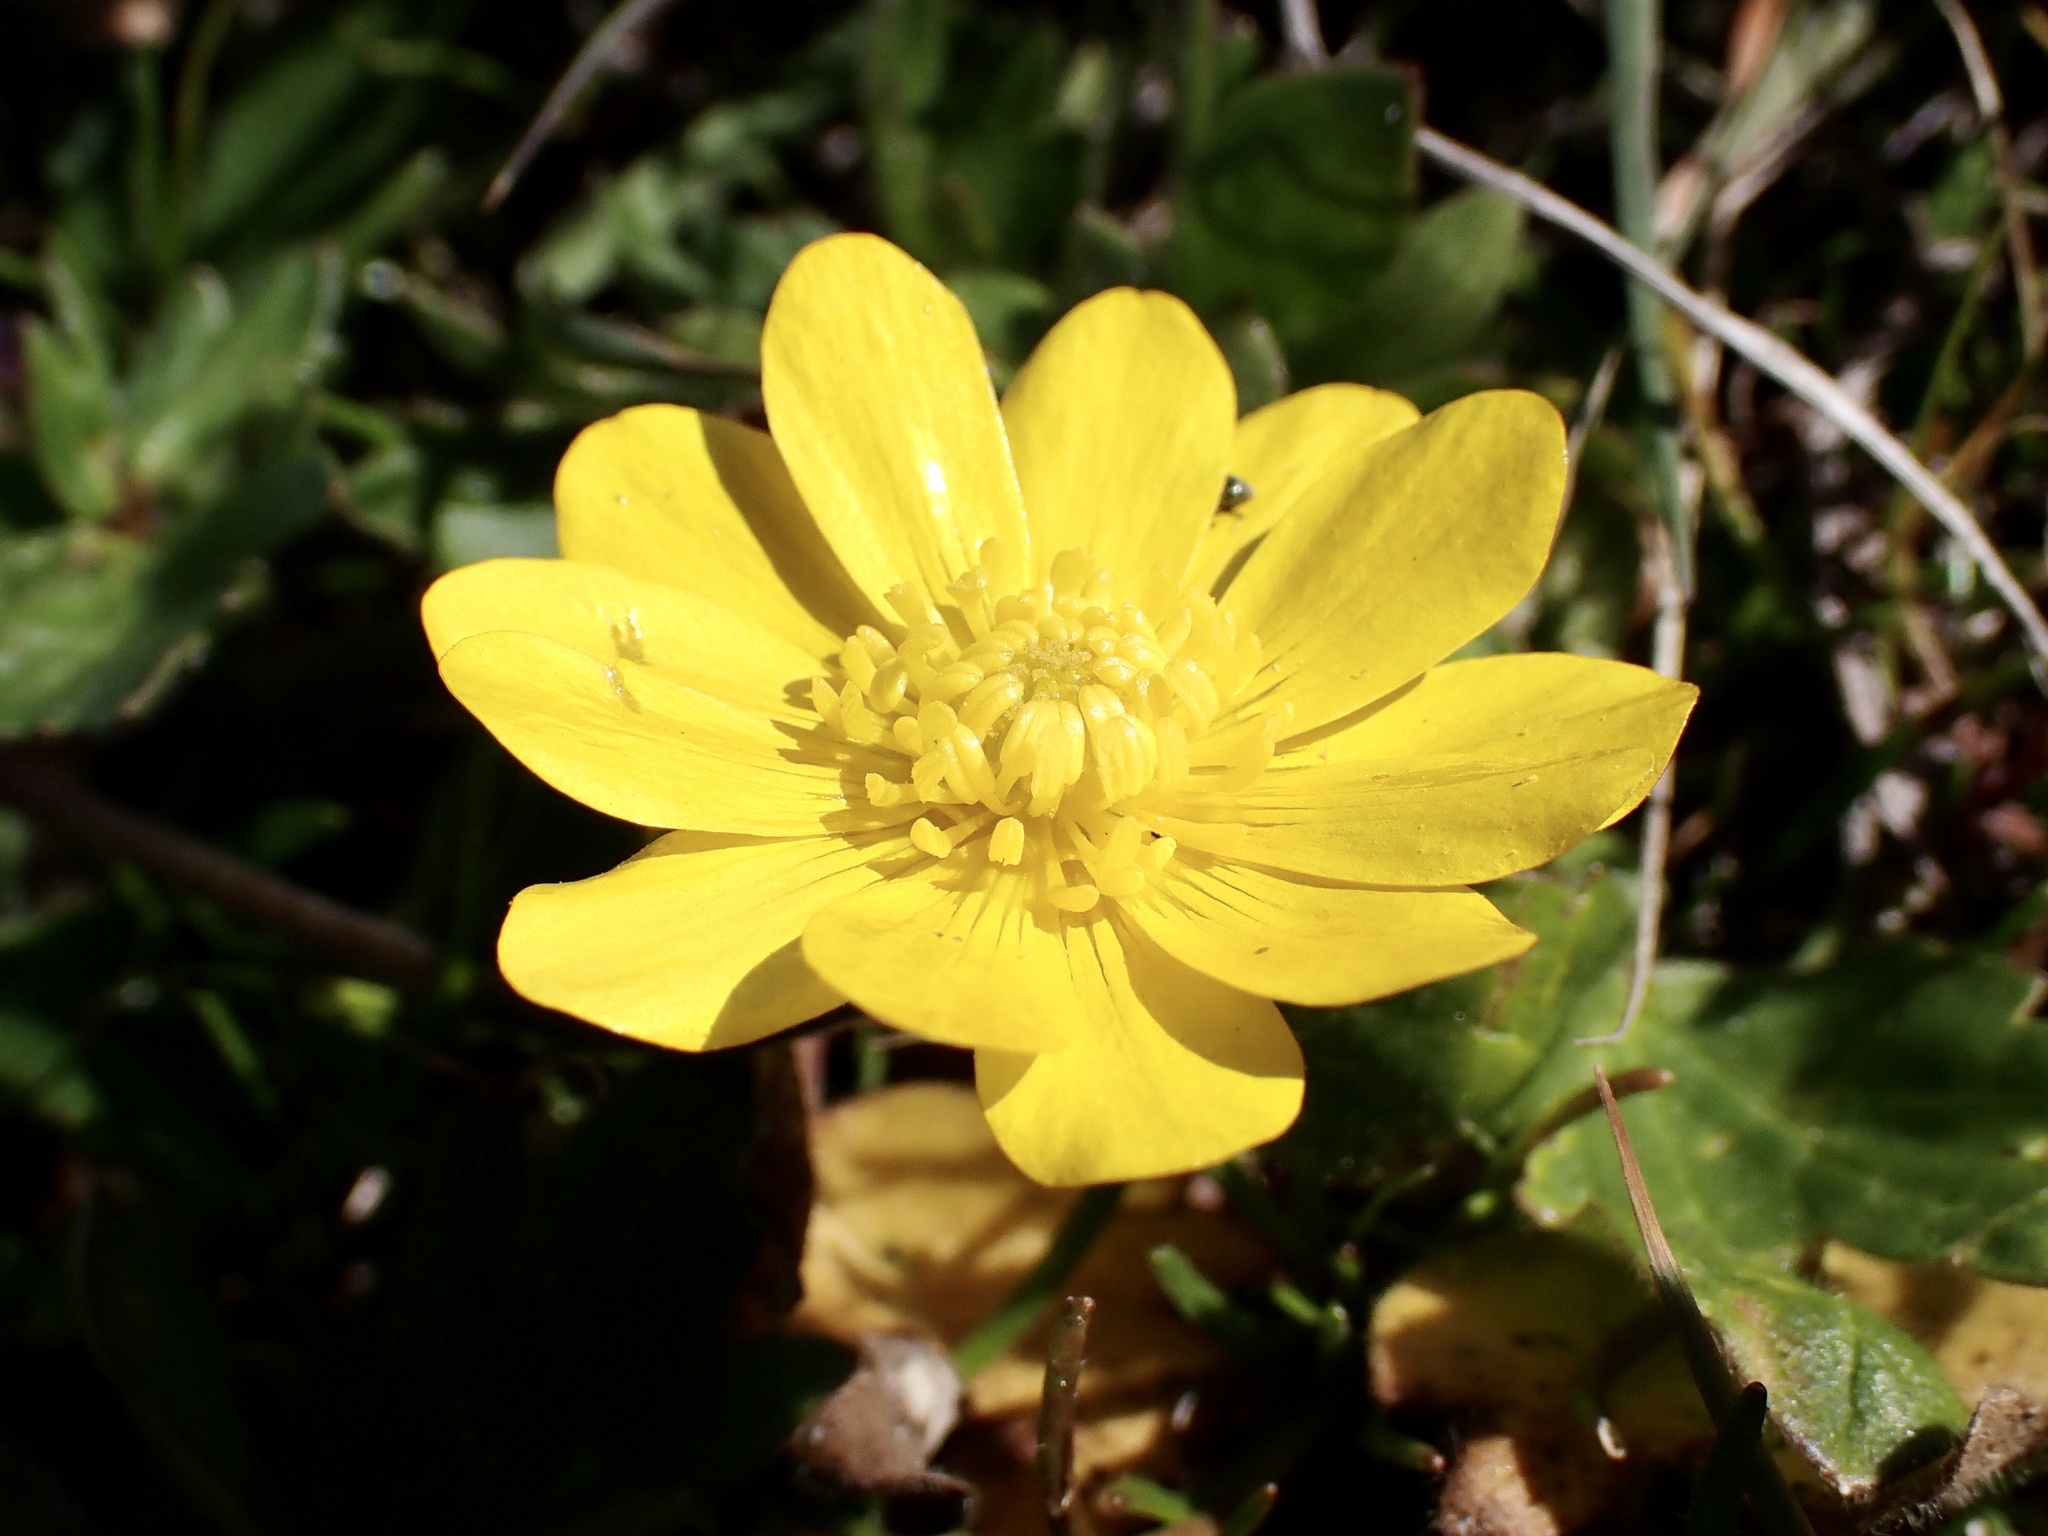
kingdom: Plantae
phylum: Tracheophyta
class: Magnoliopsida
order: Ranunculales
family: Ranunculaceae
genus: Ranunculus
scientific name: Ranunculus californicus
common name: California buttercup
